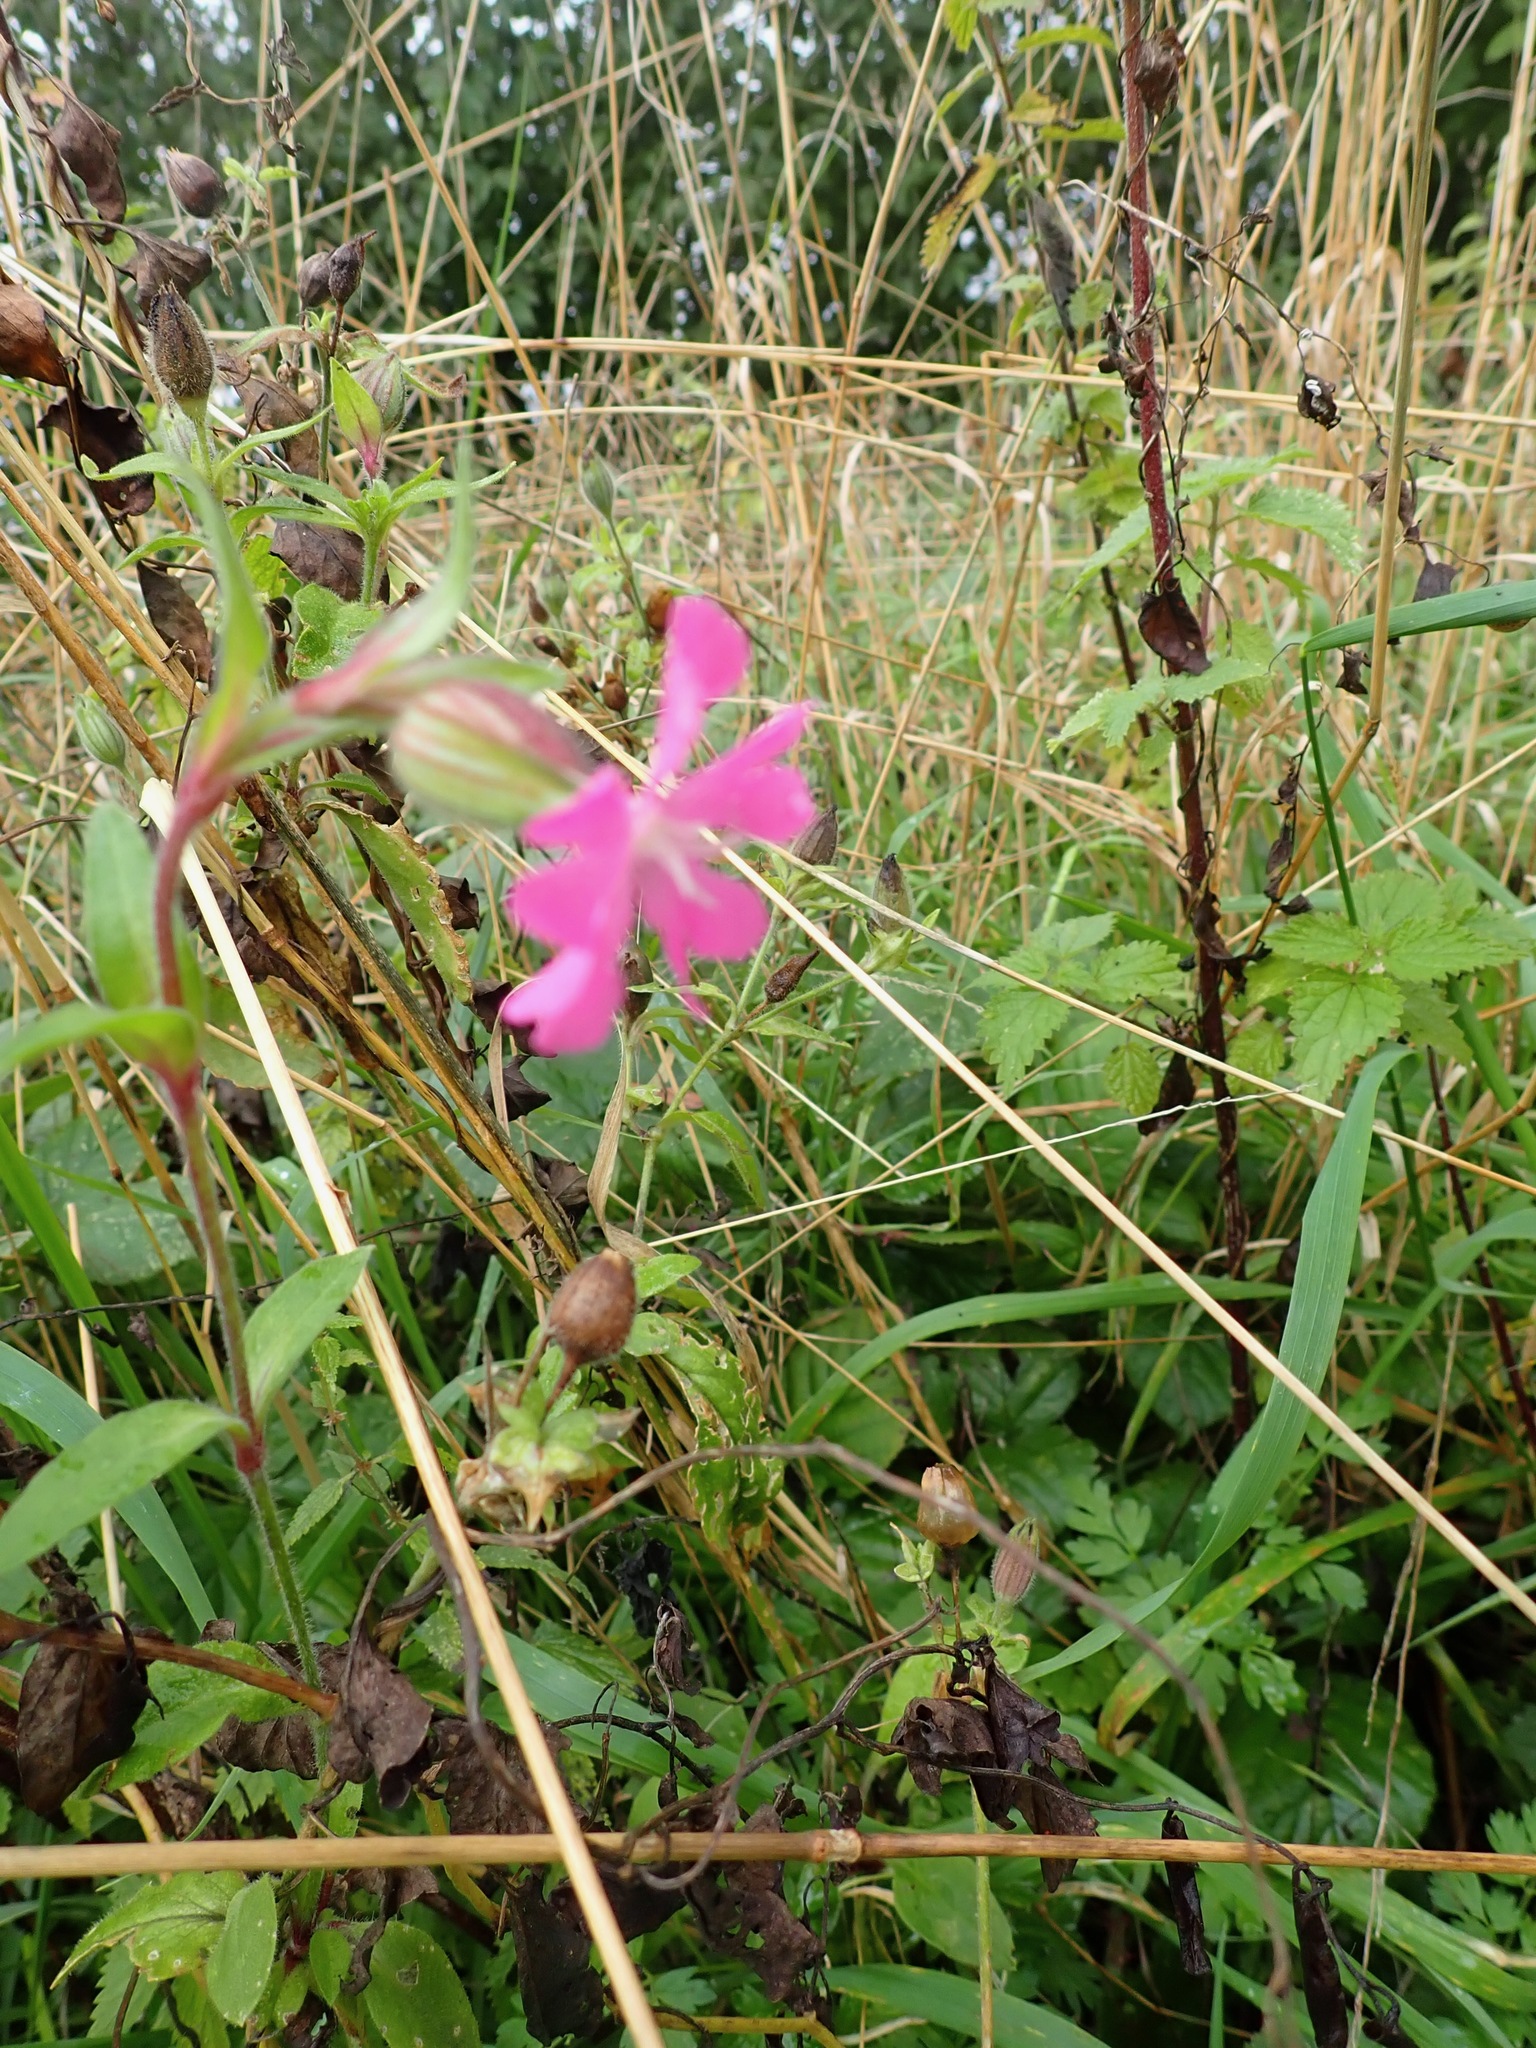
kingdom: Plantae
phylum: Tracheophyta
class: Magnoliopsida
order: Caryophyllales
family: Caryophyllaceae
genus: Silene
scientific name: Silene dioica
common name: Red campion
